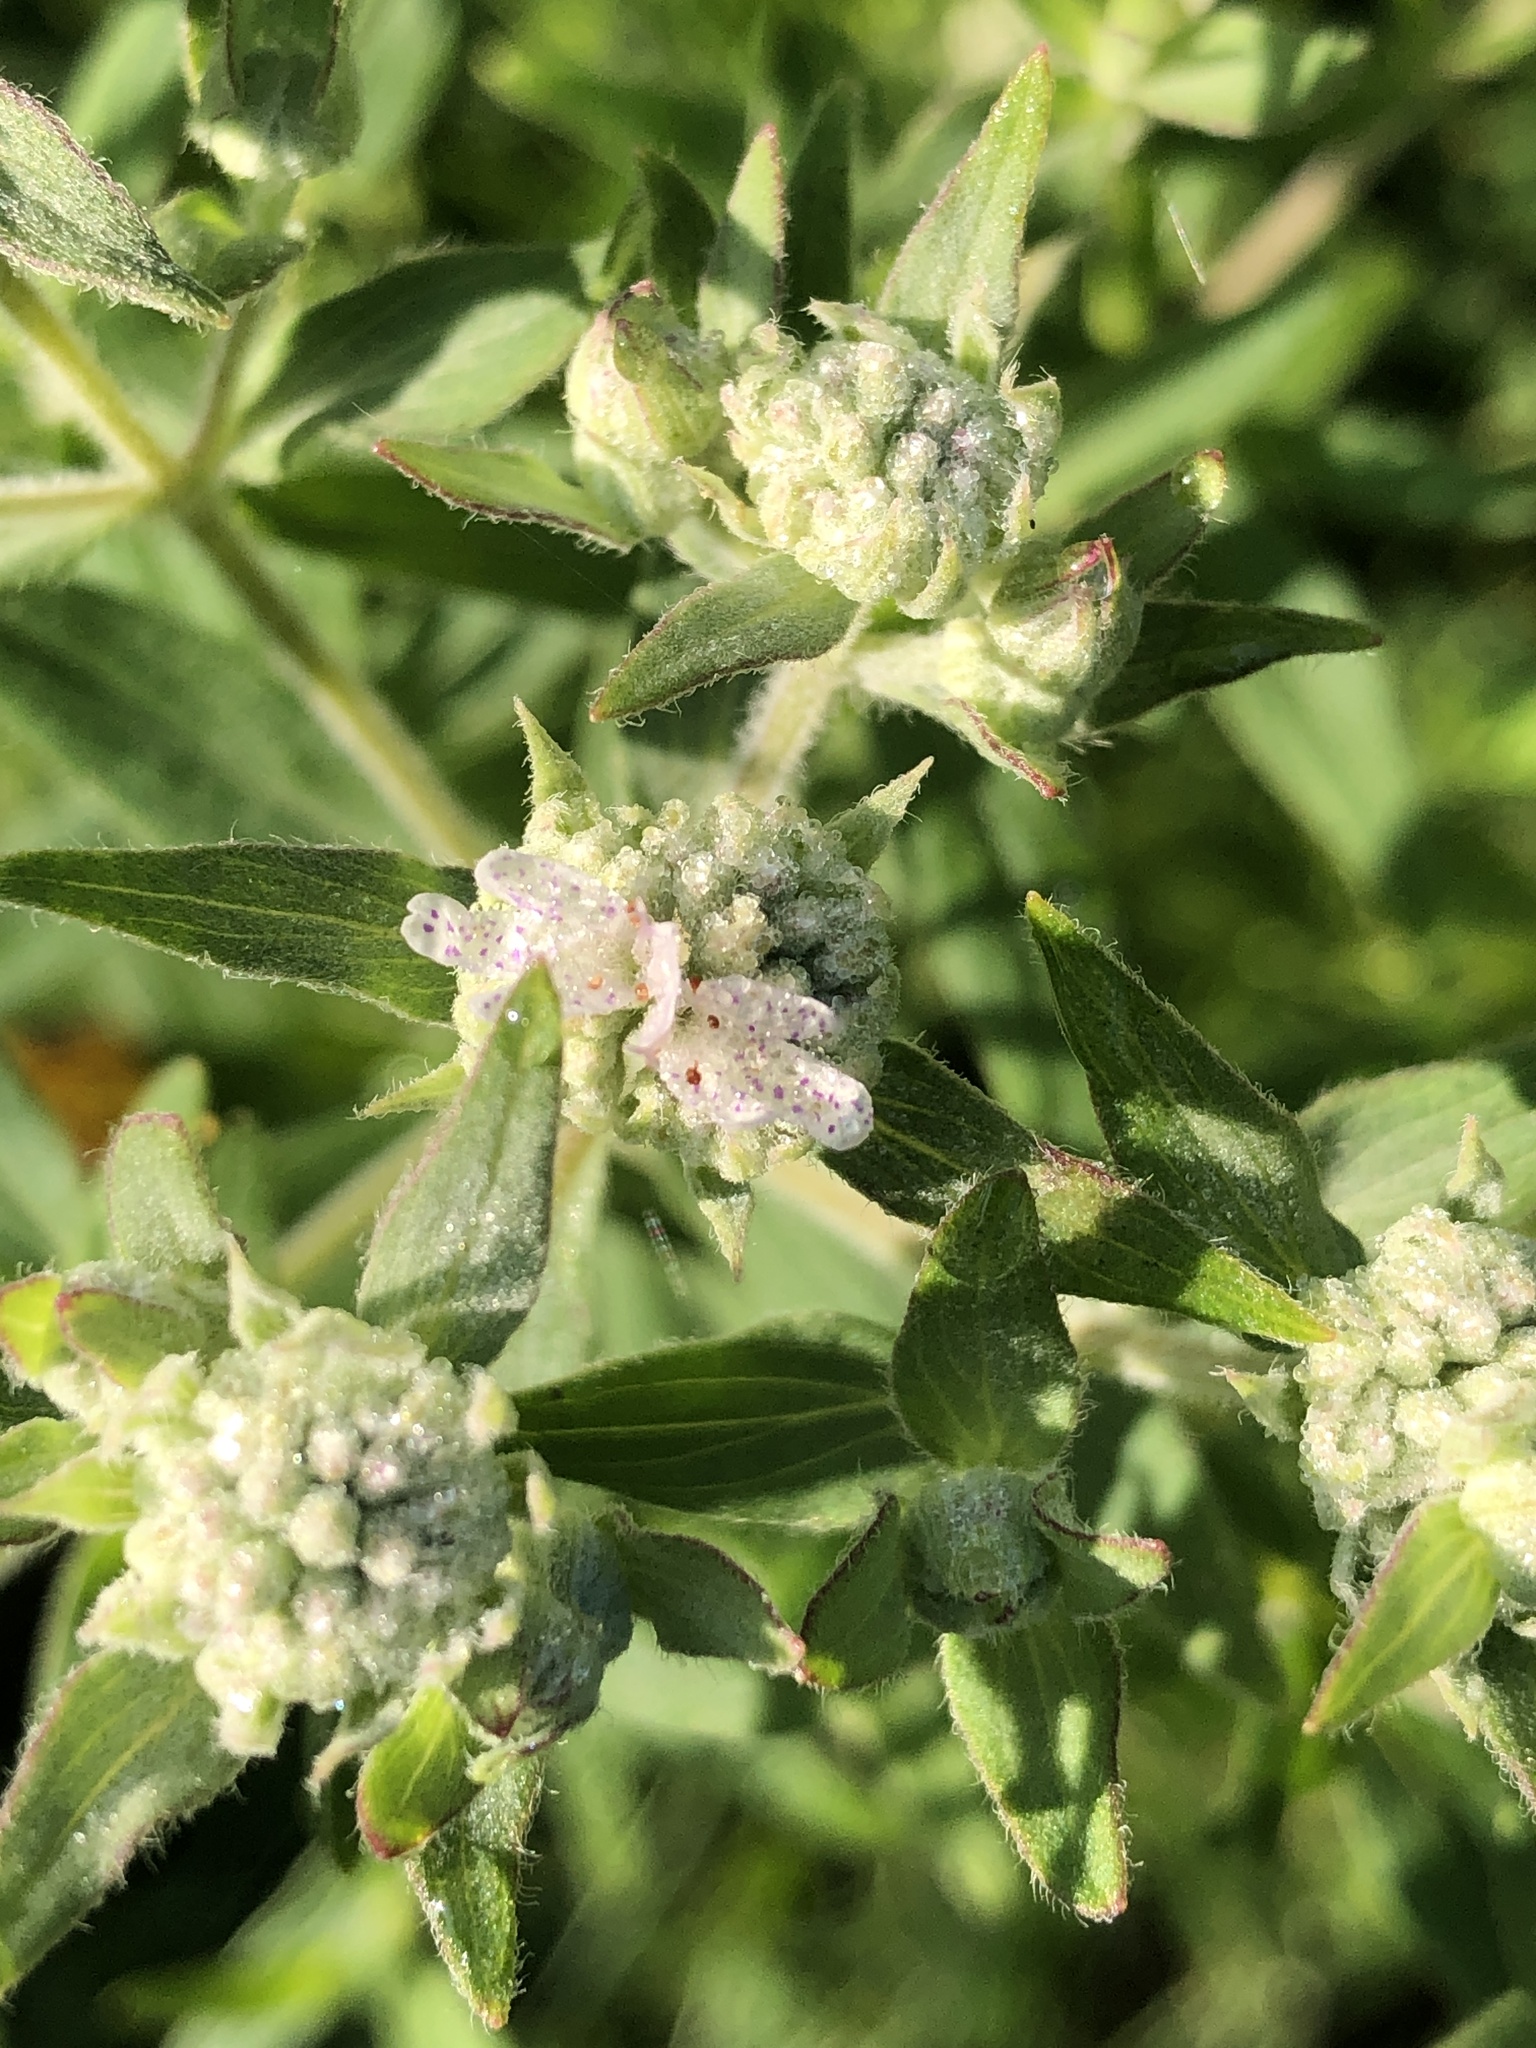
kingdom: Plantae
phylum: Tracheophyta
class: Magnoliopsida
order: Lamiales
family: Lamiaceae
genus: Pycnanthemum
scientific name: Pycnanthemum verticillatum
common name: Whorled mountain-mint
